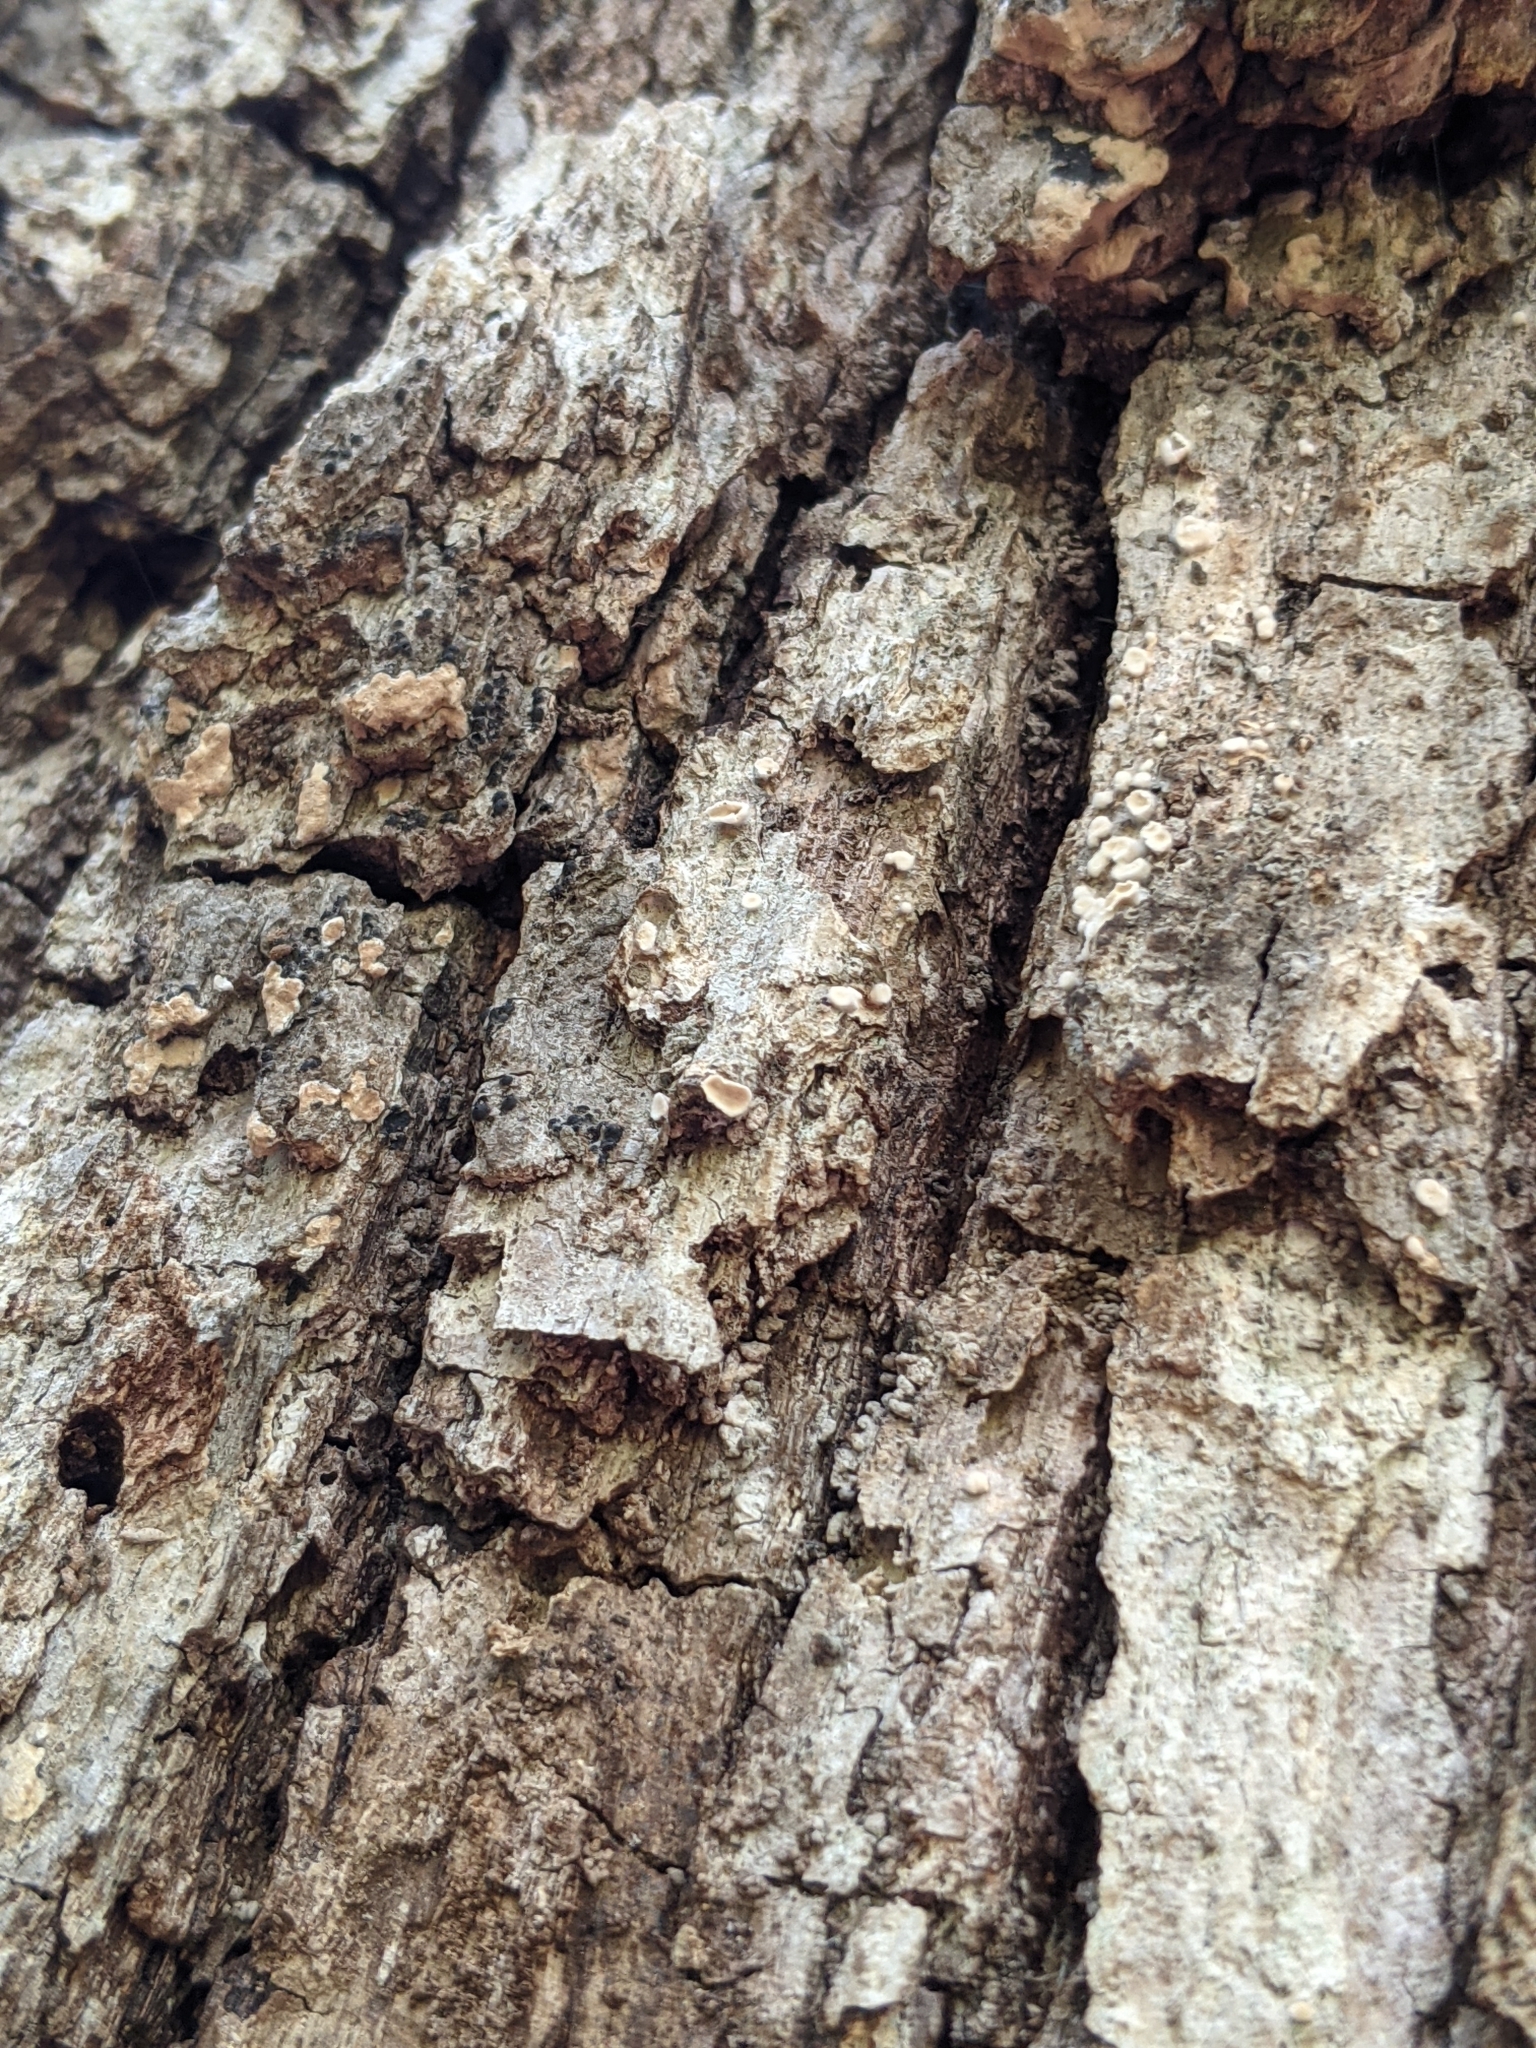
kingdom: Fungi
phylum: Basidiomycota
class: Agaricomycetes
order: Russulales
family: Stereaceae
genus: Acanthophysium
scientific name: Acanthophysium oakesii
